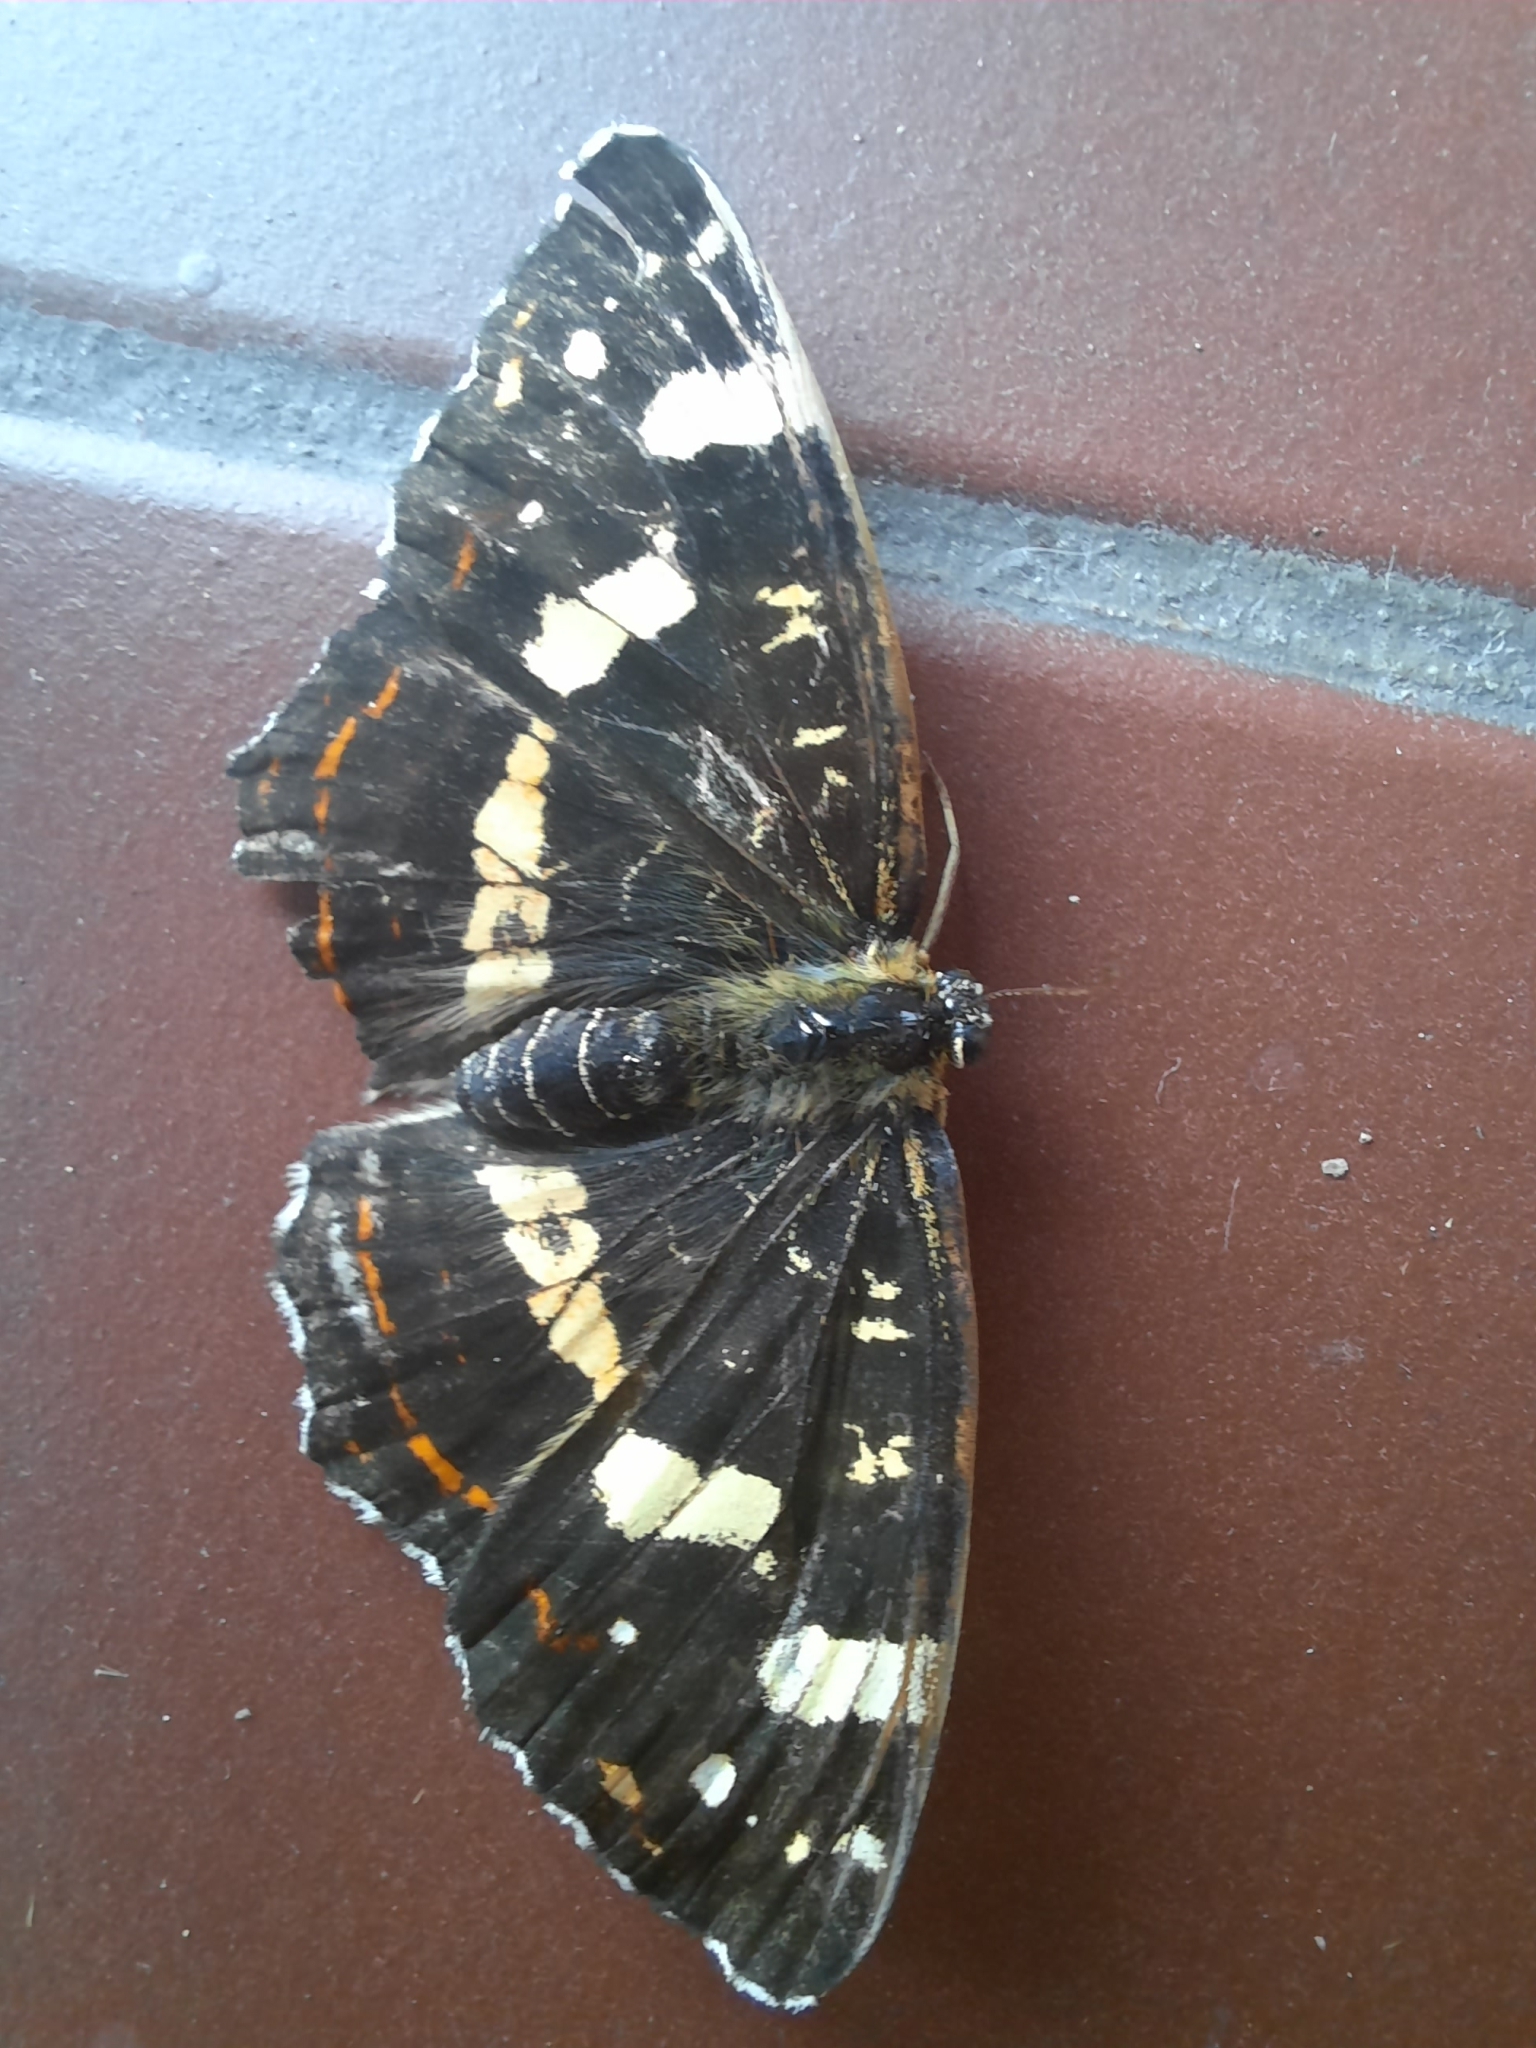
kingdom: Animalia
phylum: Arthropoda
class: Insecta
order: Lepidoptera
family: Nymphalidae
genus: Araschnia
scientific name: Araschnia levana
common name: Map butterfly
